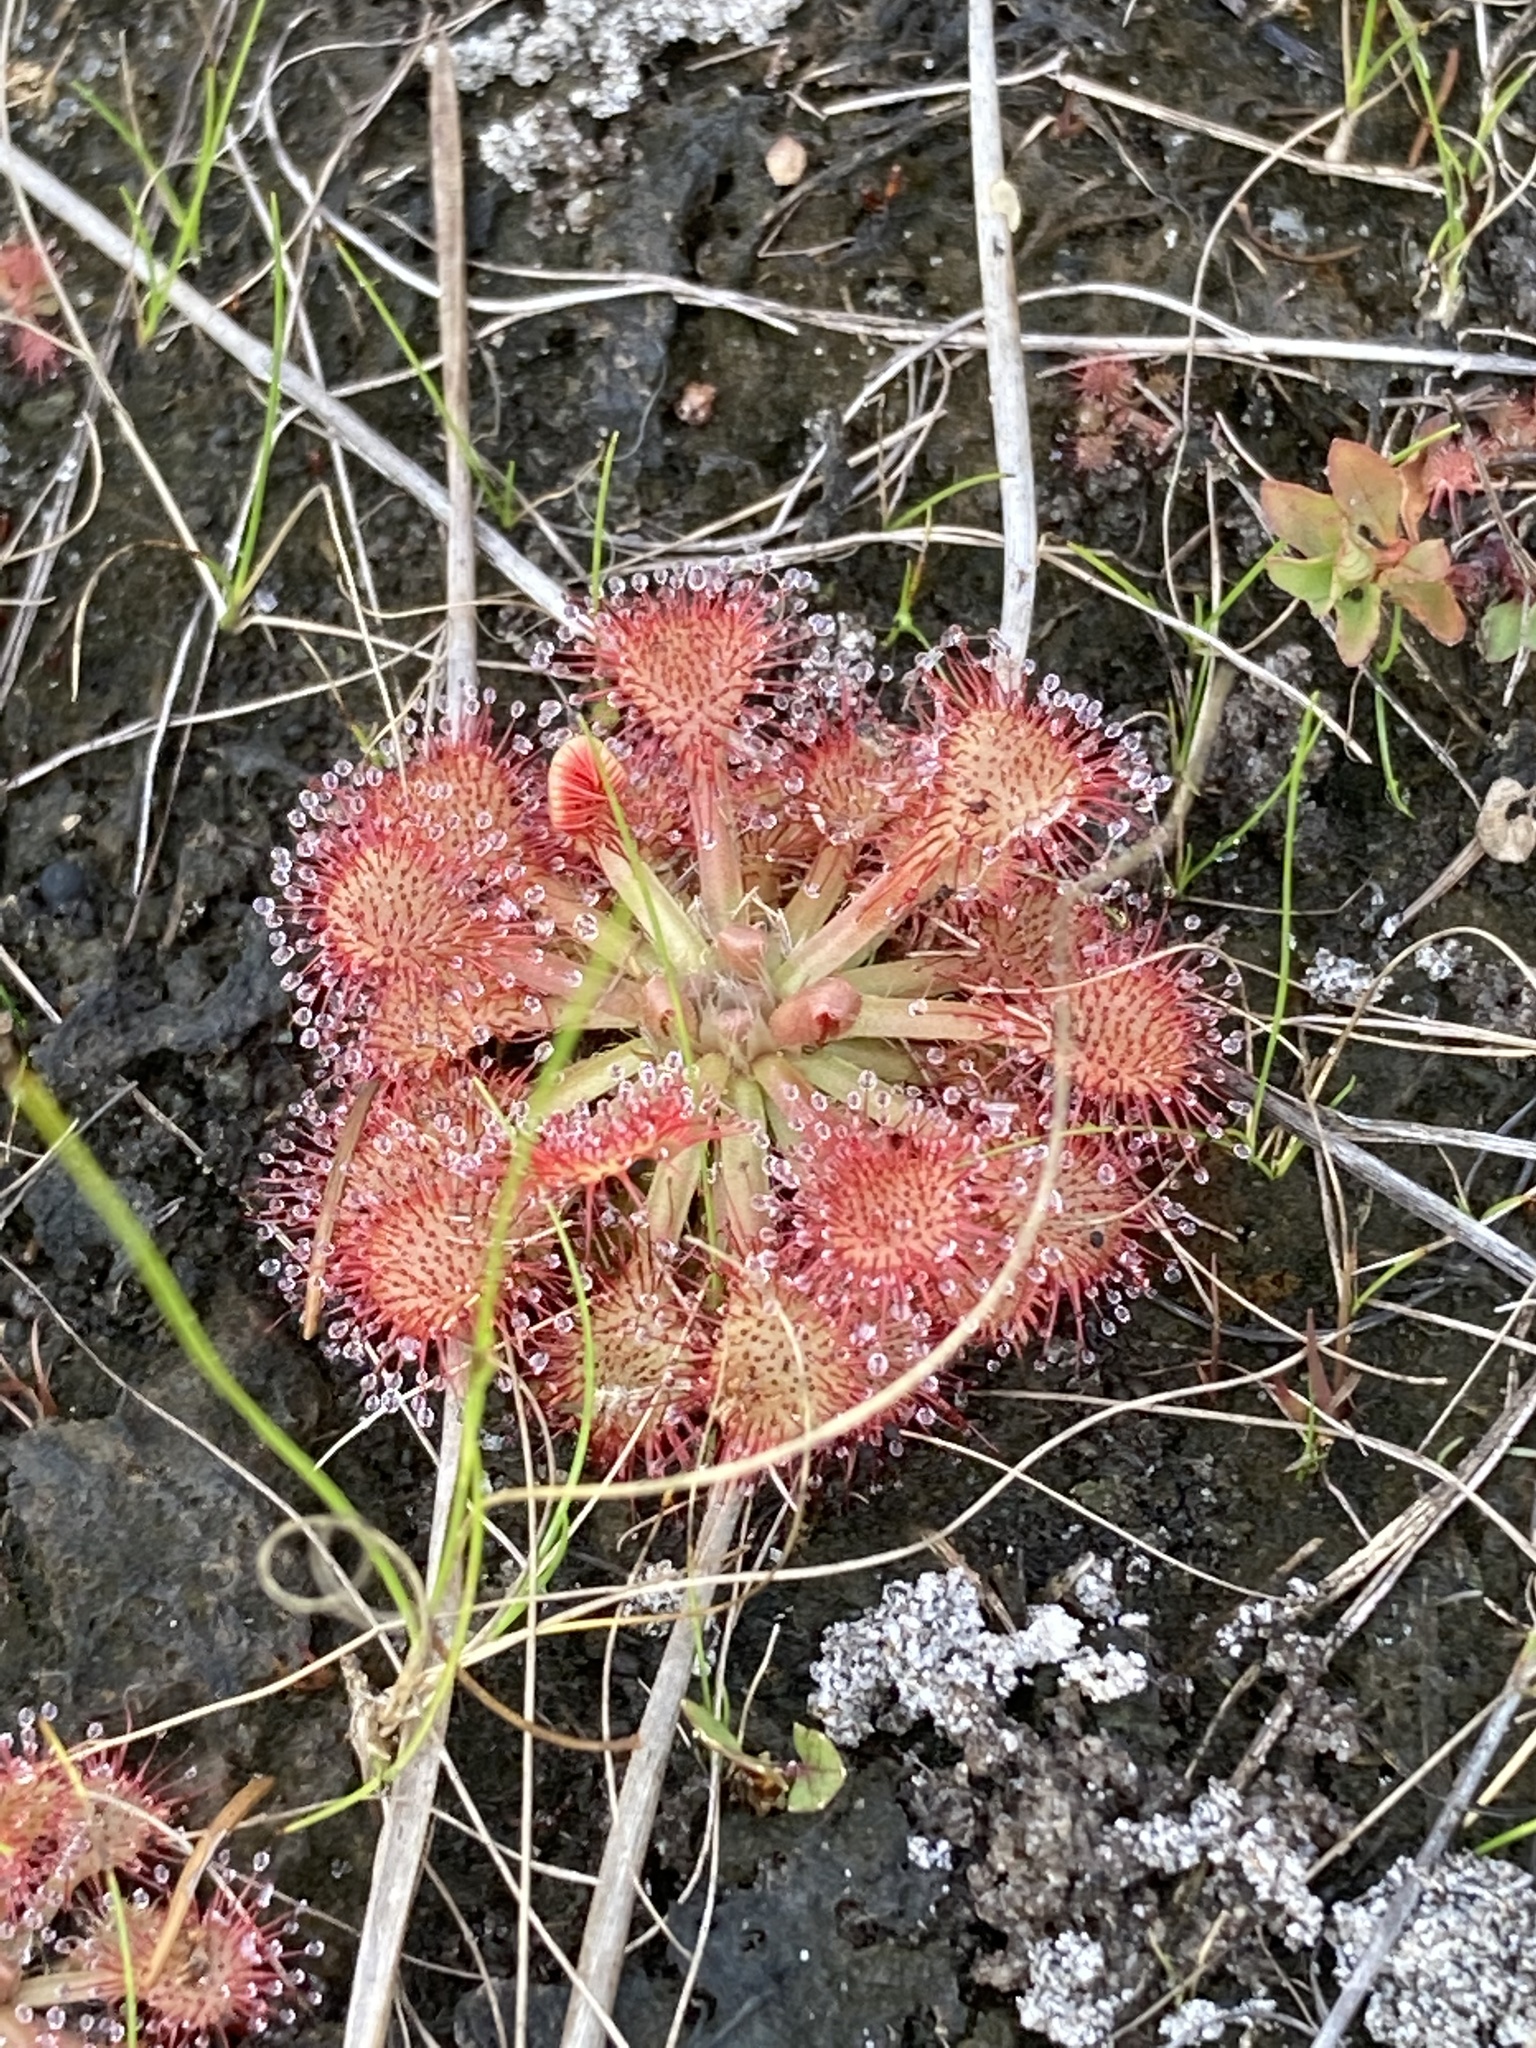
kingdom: Plantae
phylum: Tracheophyta
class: Magnoliopsida
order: Caryophyllales
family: Droseraceae
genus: Drosera
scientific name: Drosera capillaris
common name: Pink sundew
